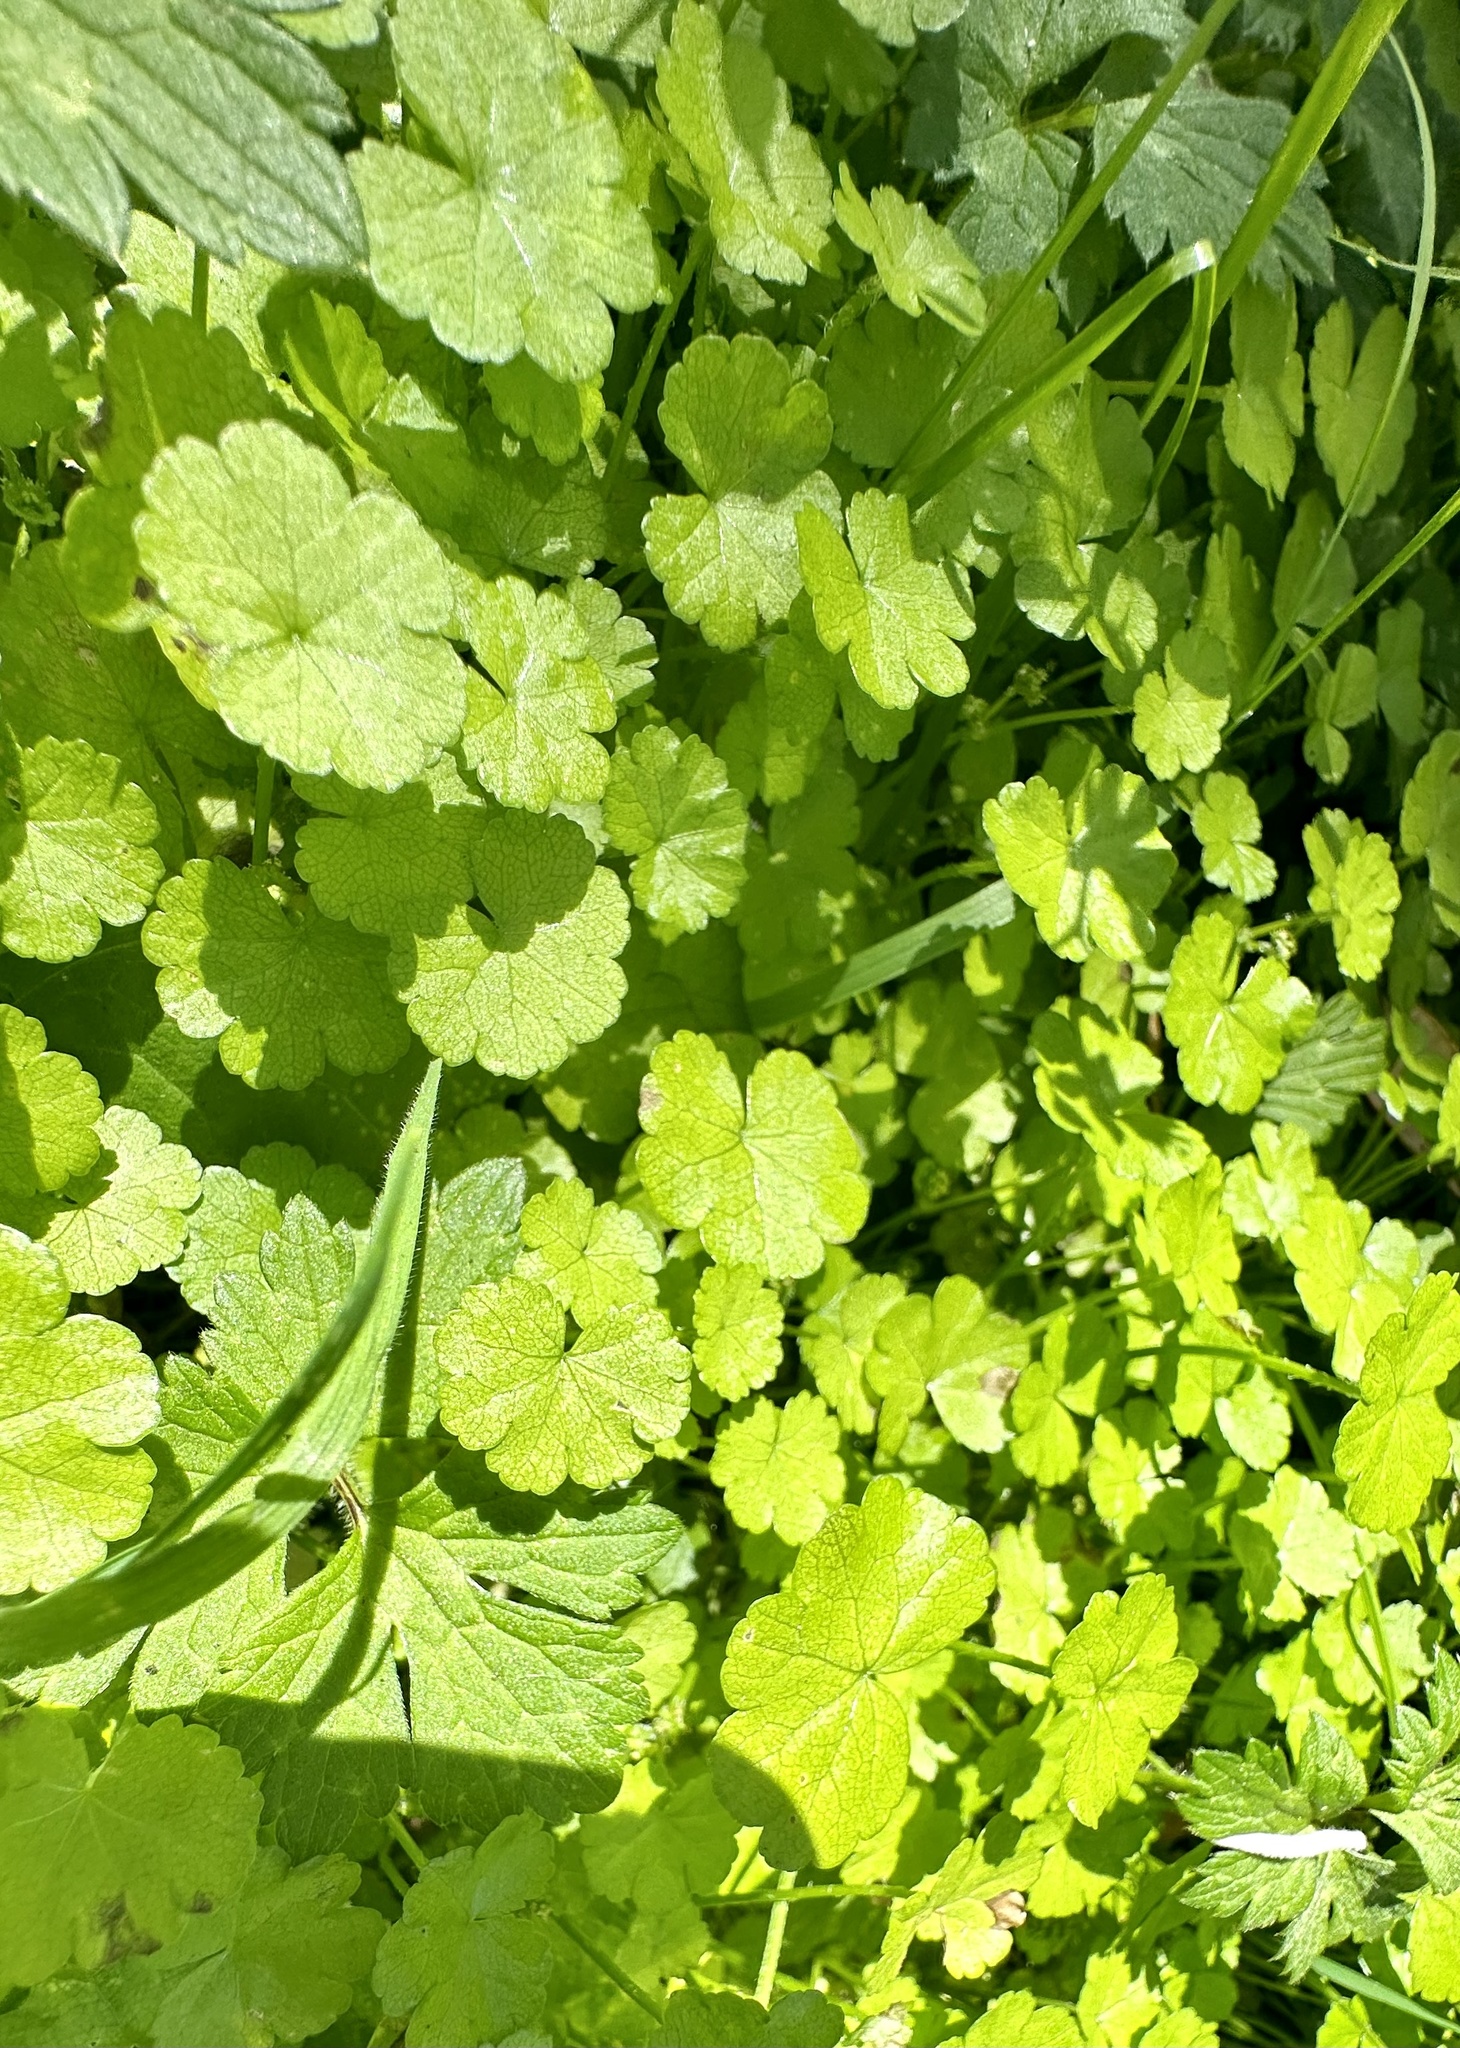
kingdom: Plantae
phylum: Tracheophyta
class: Magnoliopsida
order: Apiales
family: Araliaceae
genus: Hydrocotyle
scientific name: Hydrocotyle heteromeria
